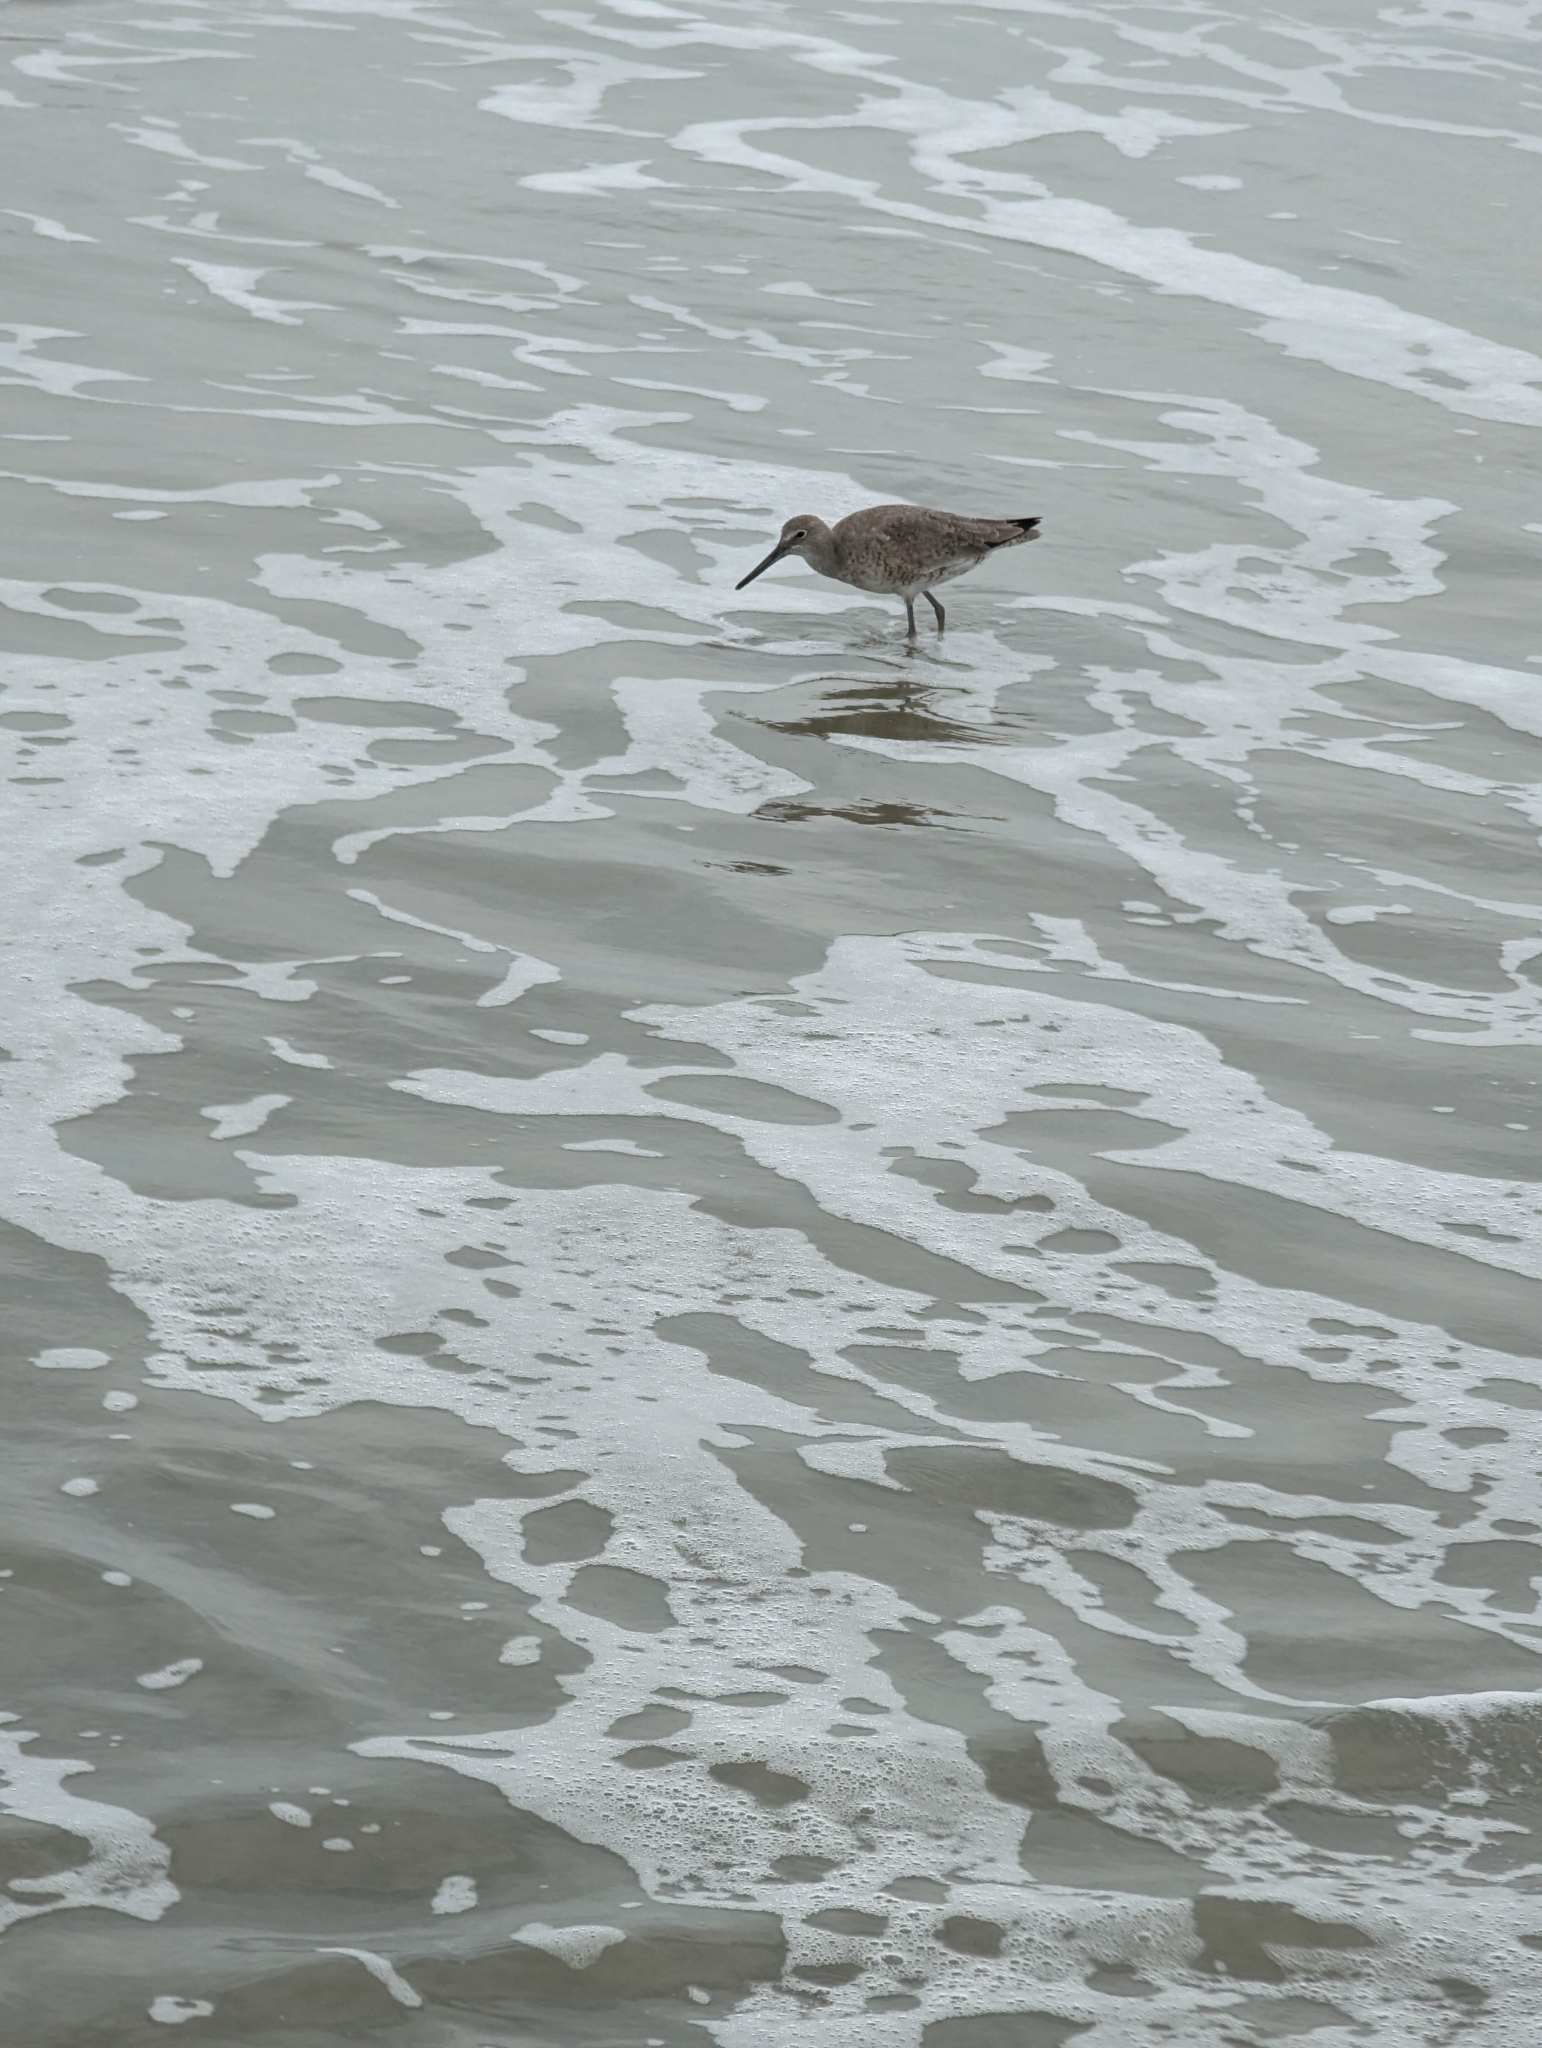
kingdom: Animalia
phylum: Chordata
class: Aves
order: Charadriiformes
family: Scolopacidae
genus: Tringa
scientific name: Tringa semipalmata
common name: Willet
